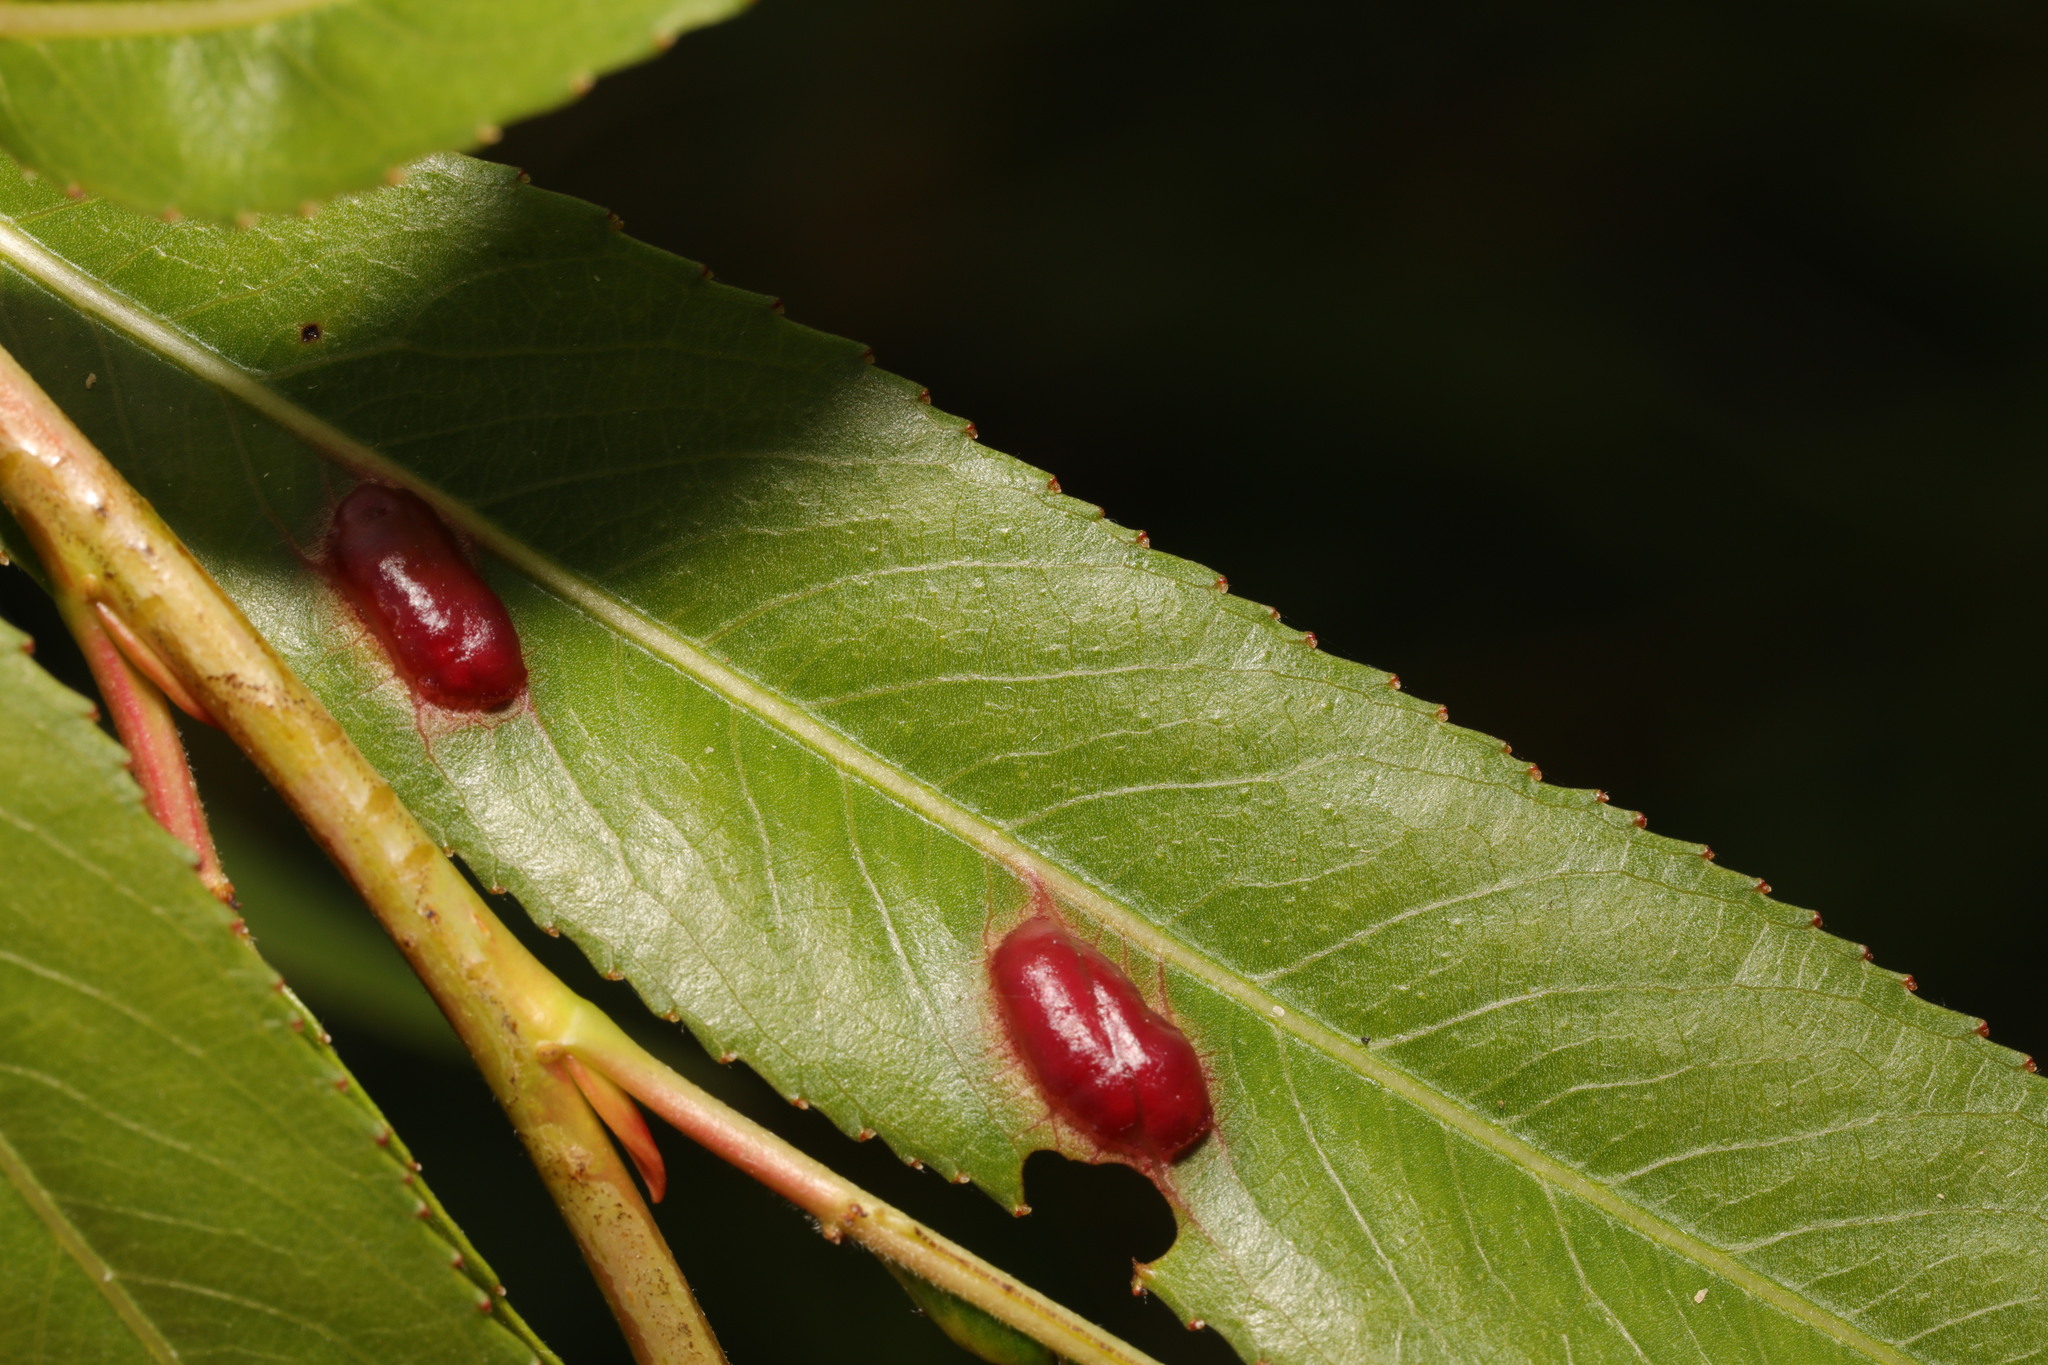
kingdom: Animalia
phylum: Arthropoda
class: Insecta
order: Hymenoptera
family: Tenthredinidae
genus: Pontania
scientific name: Pontania proxima
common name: Common sawfly
